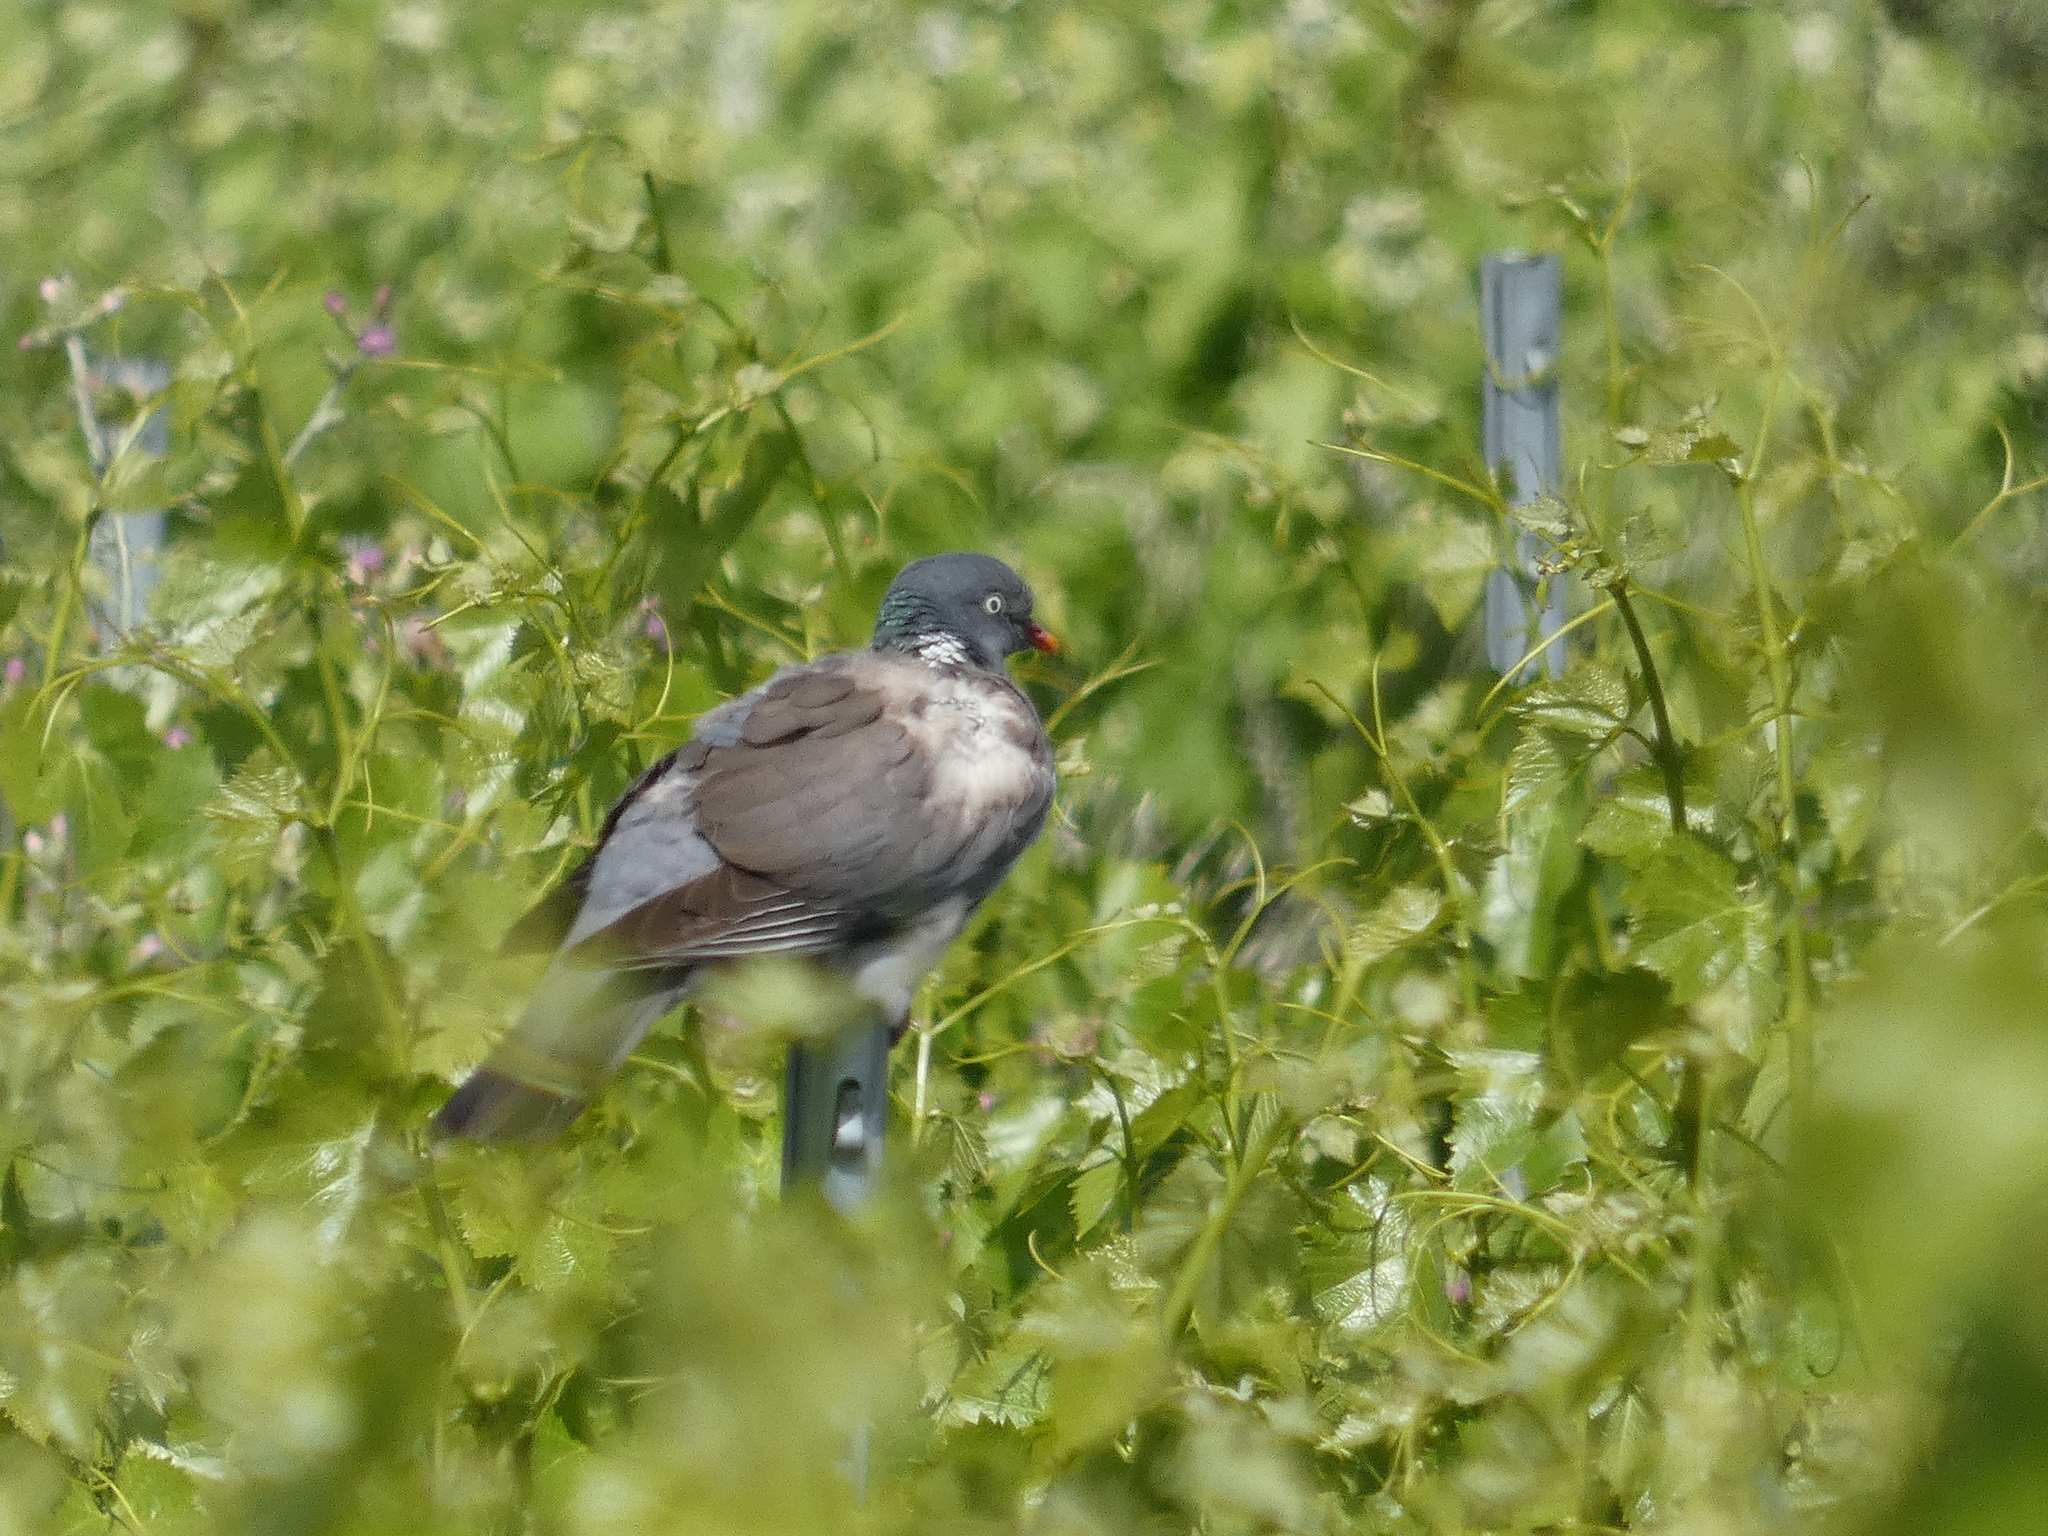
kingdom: Animalia
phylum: Chordata
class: Aves
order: Columbiformes
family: Columbidae
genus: Columba
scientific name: Columba palumbus
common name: Common wood pigeon
